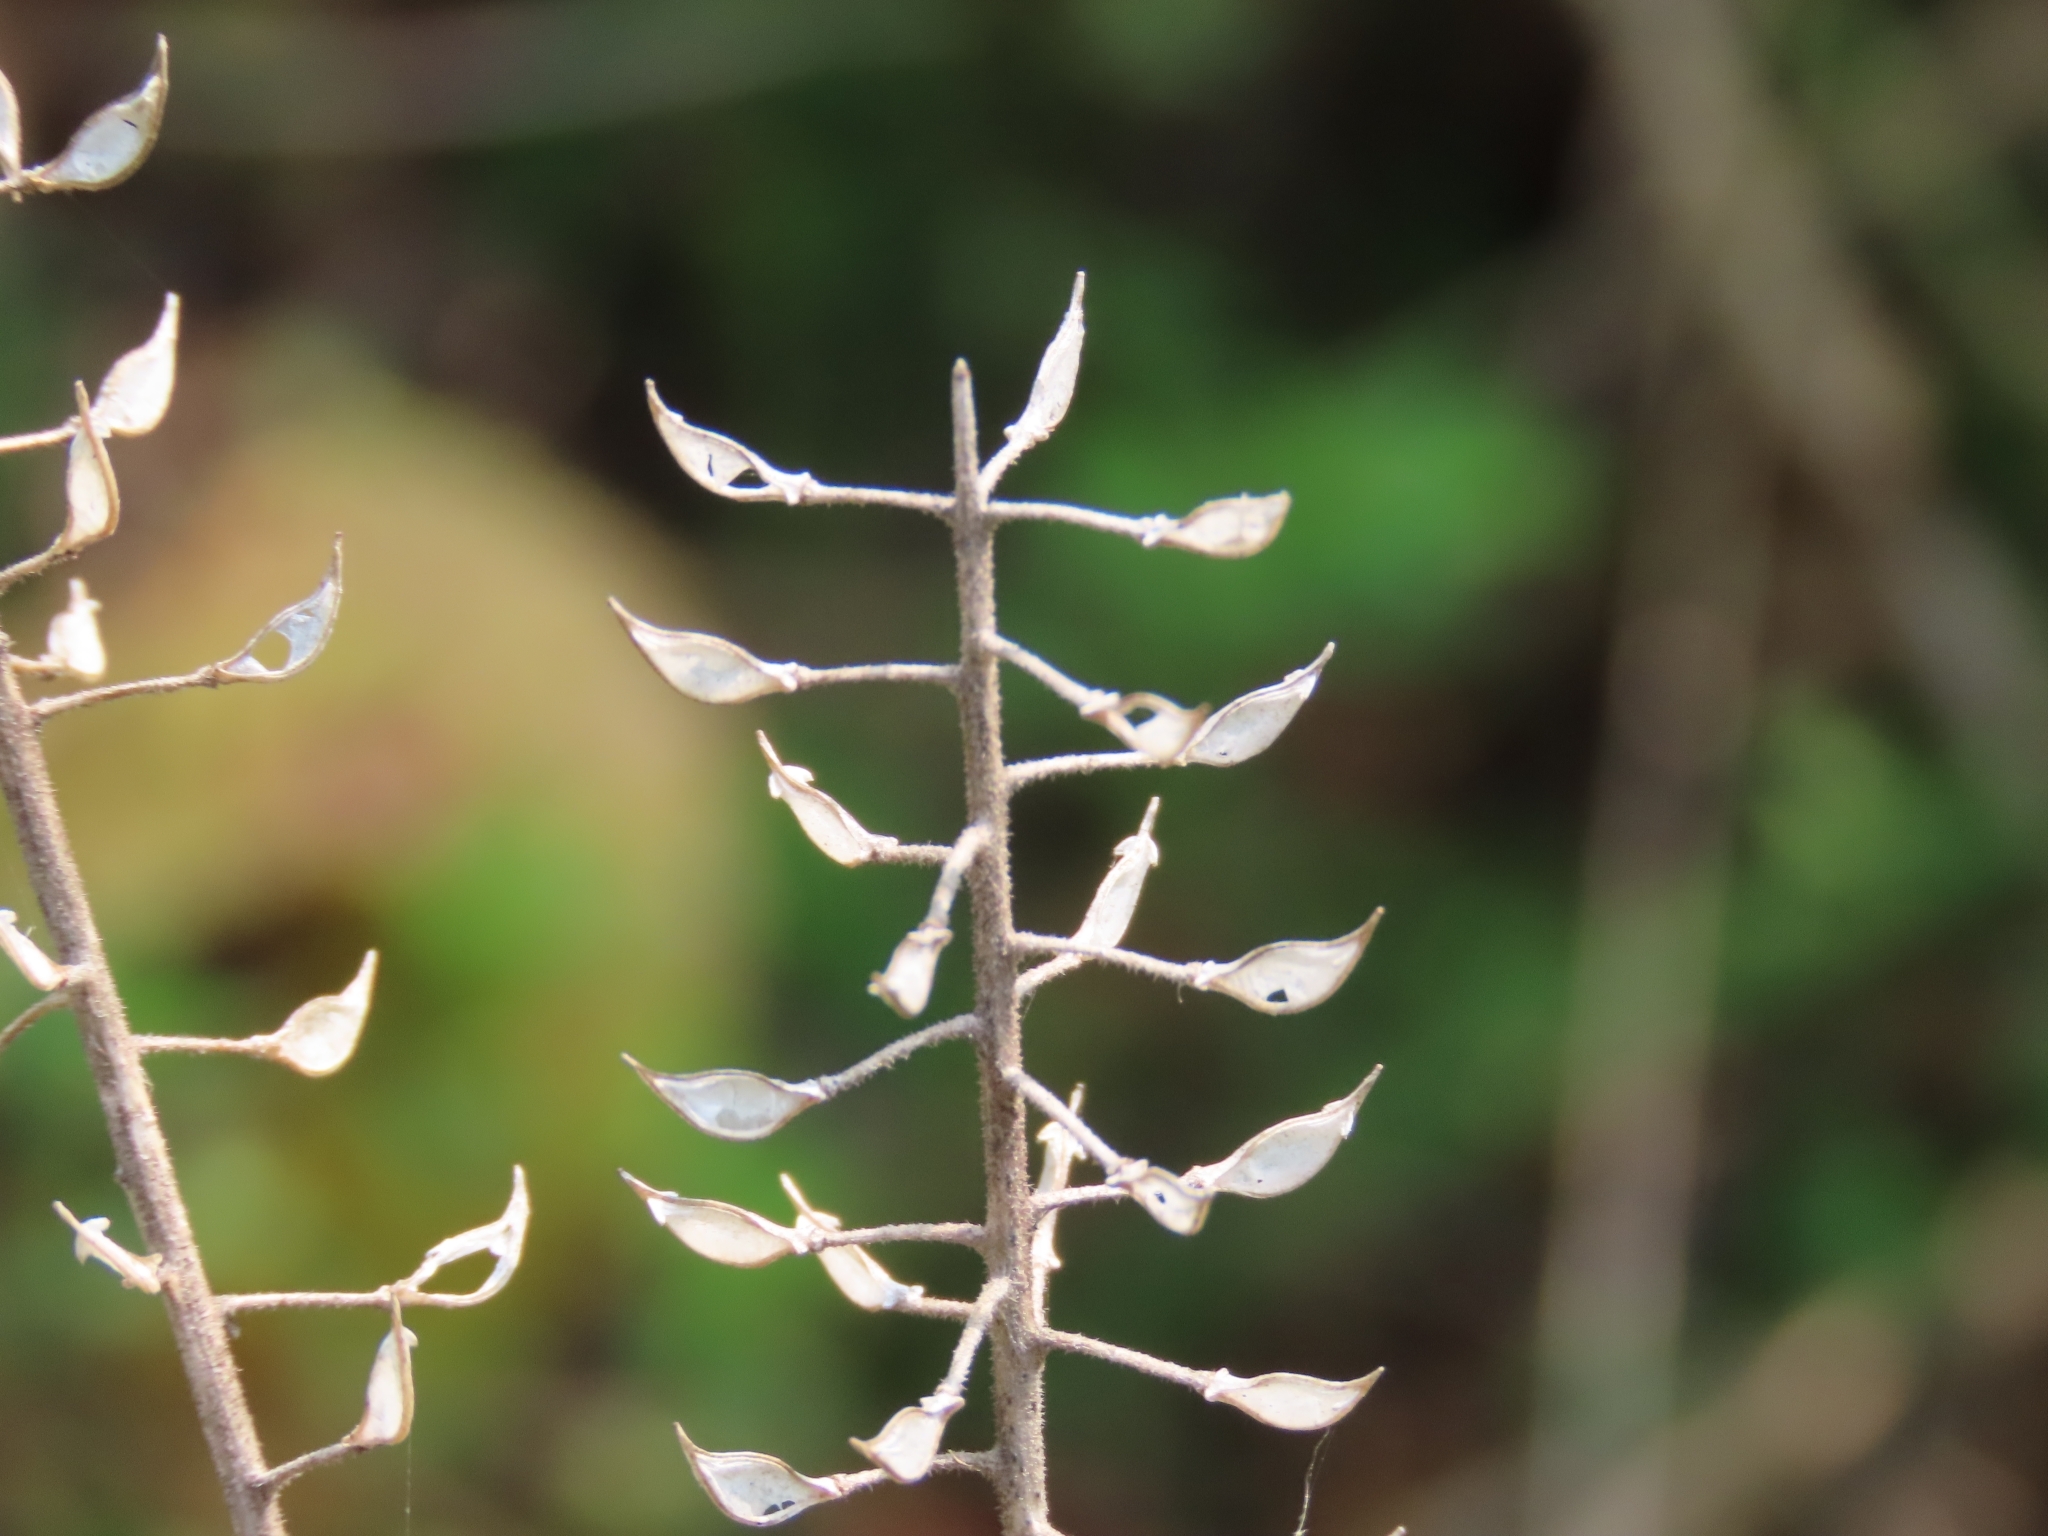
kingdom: Plantae
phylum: Tracheophyta
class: Magnoliopsida
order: Brassicales
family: Brassicaceae
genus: Lepidium
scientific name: Lepidium campestre
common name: Field pepperwort
